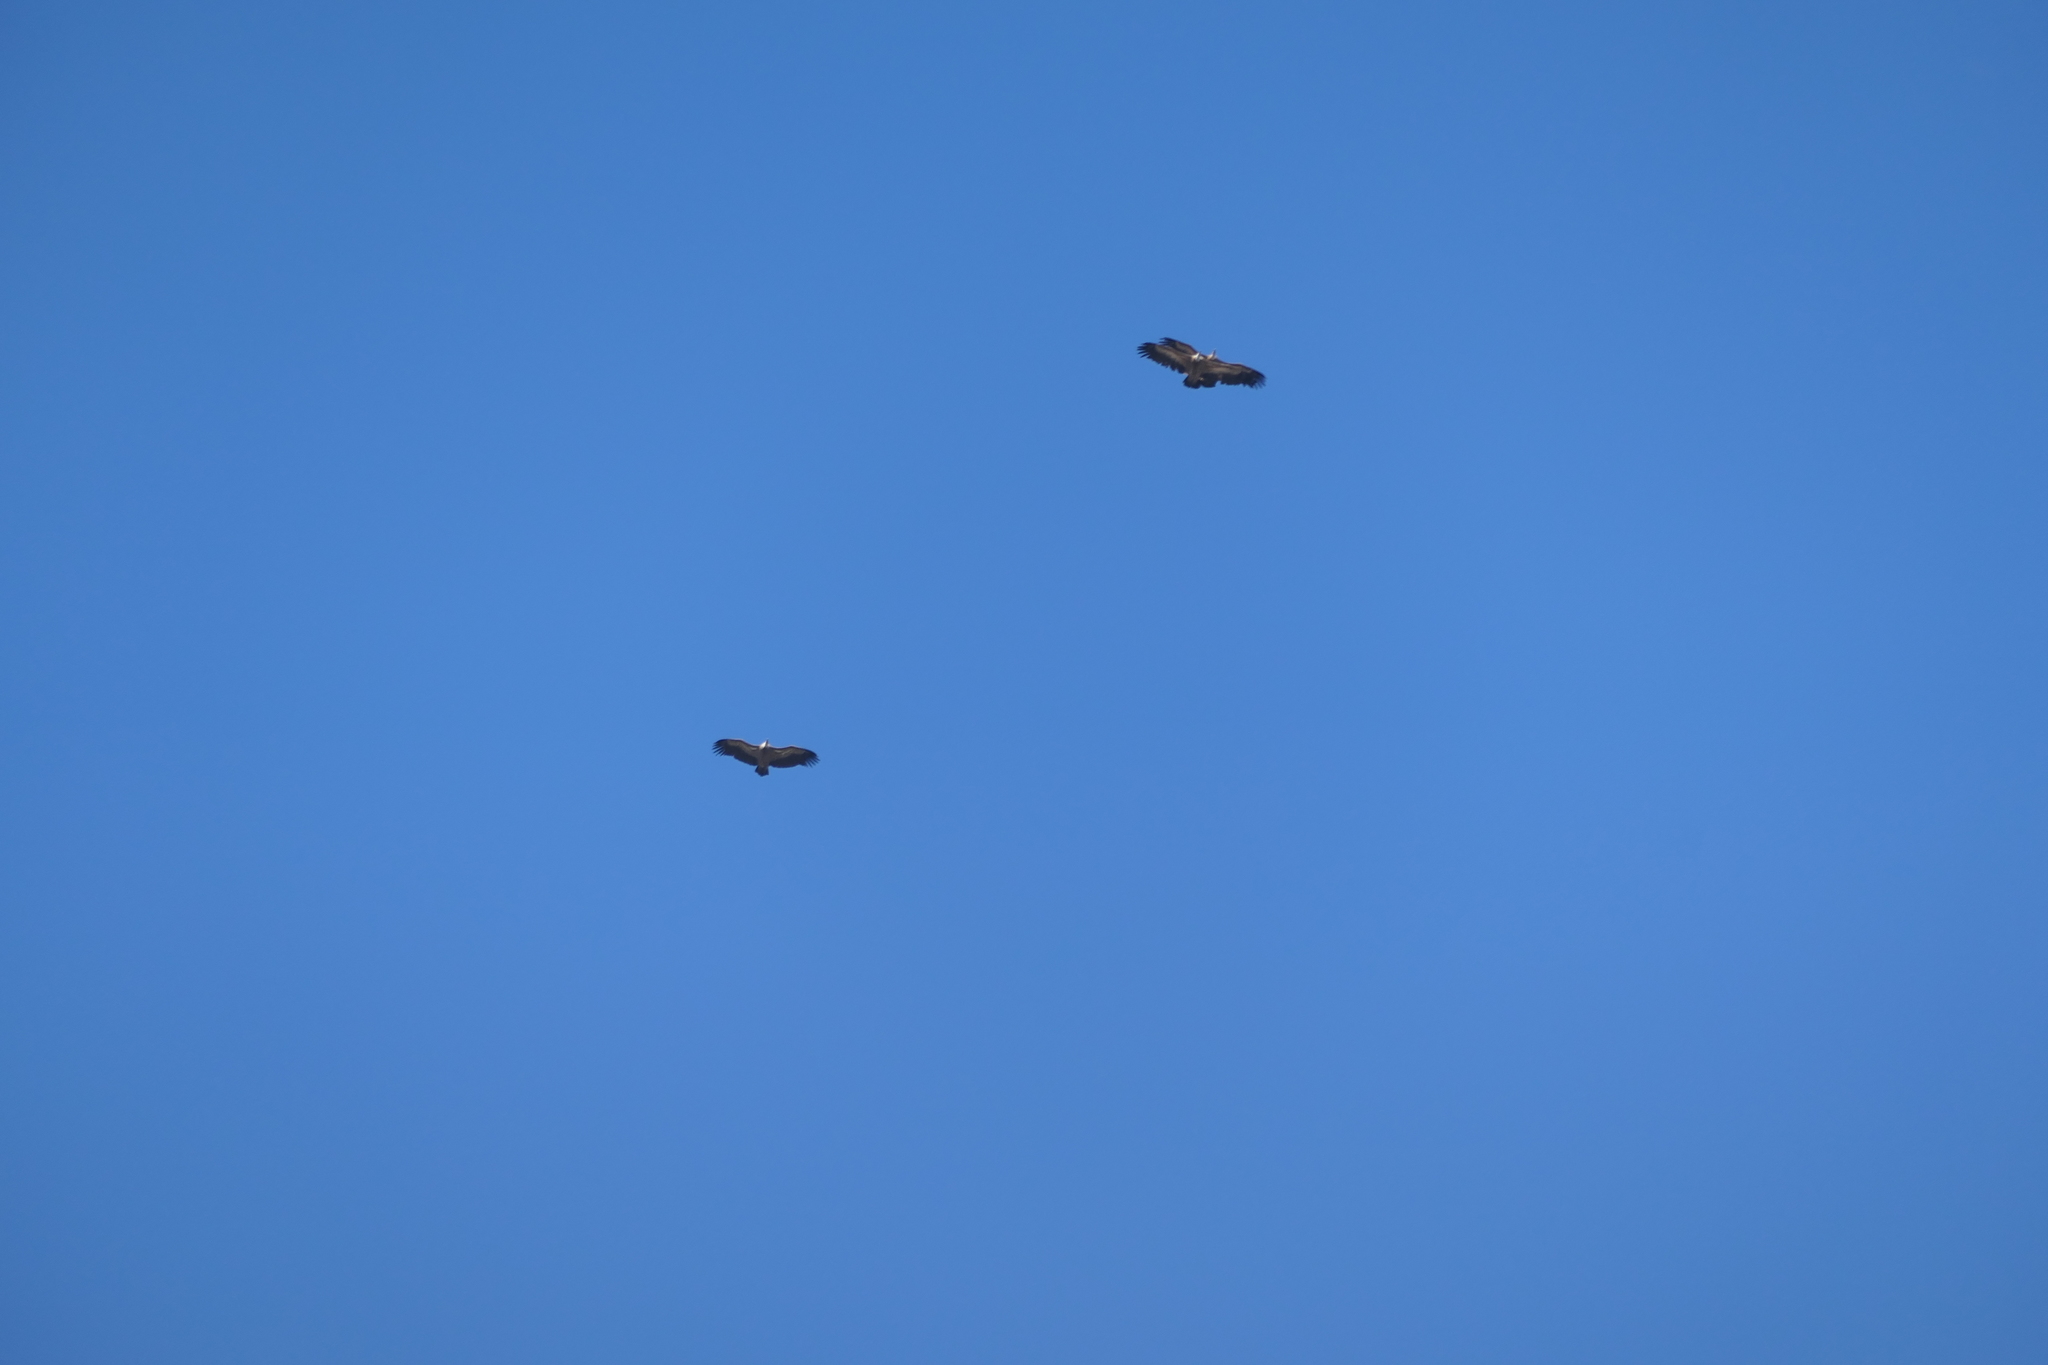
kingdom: Animalia
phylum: Chordata
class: Aves
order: Accipitriformes
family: Accipitridae
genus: Gyps
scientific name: Gyps fulvus
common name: Griffon vulture
